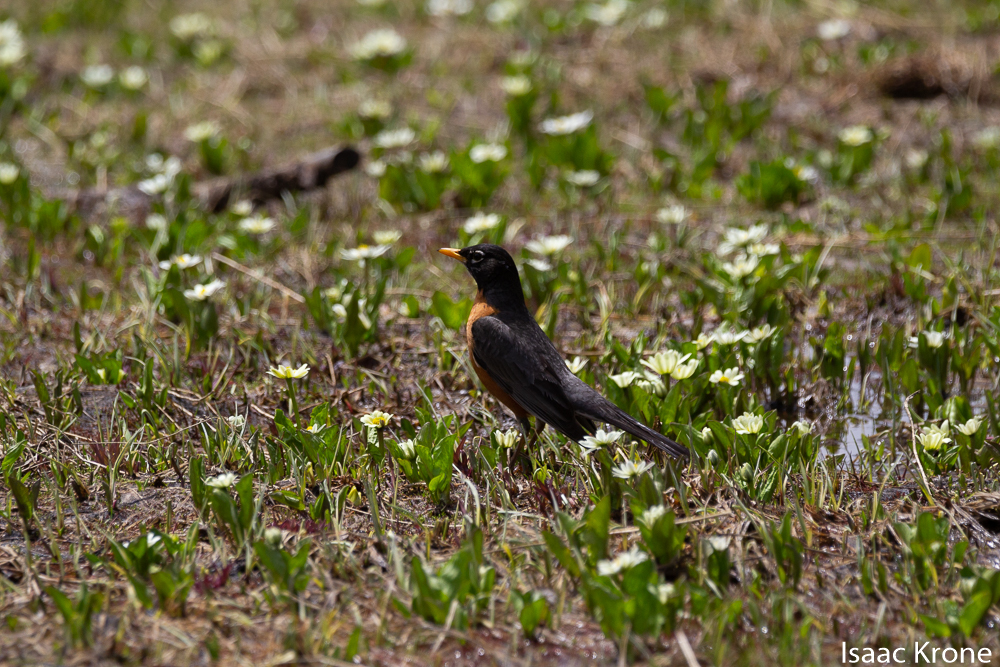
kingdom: Animalia
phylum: Chordata
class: Aves
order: Passeriformes
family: Turdidae
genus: Turdus
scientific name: Turdus migratorius
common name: American robin
